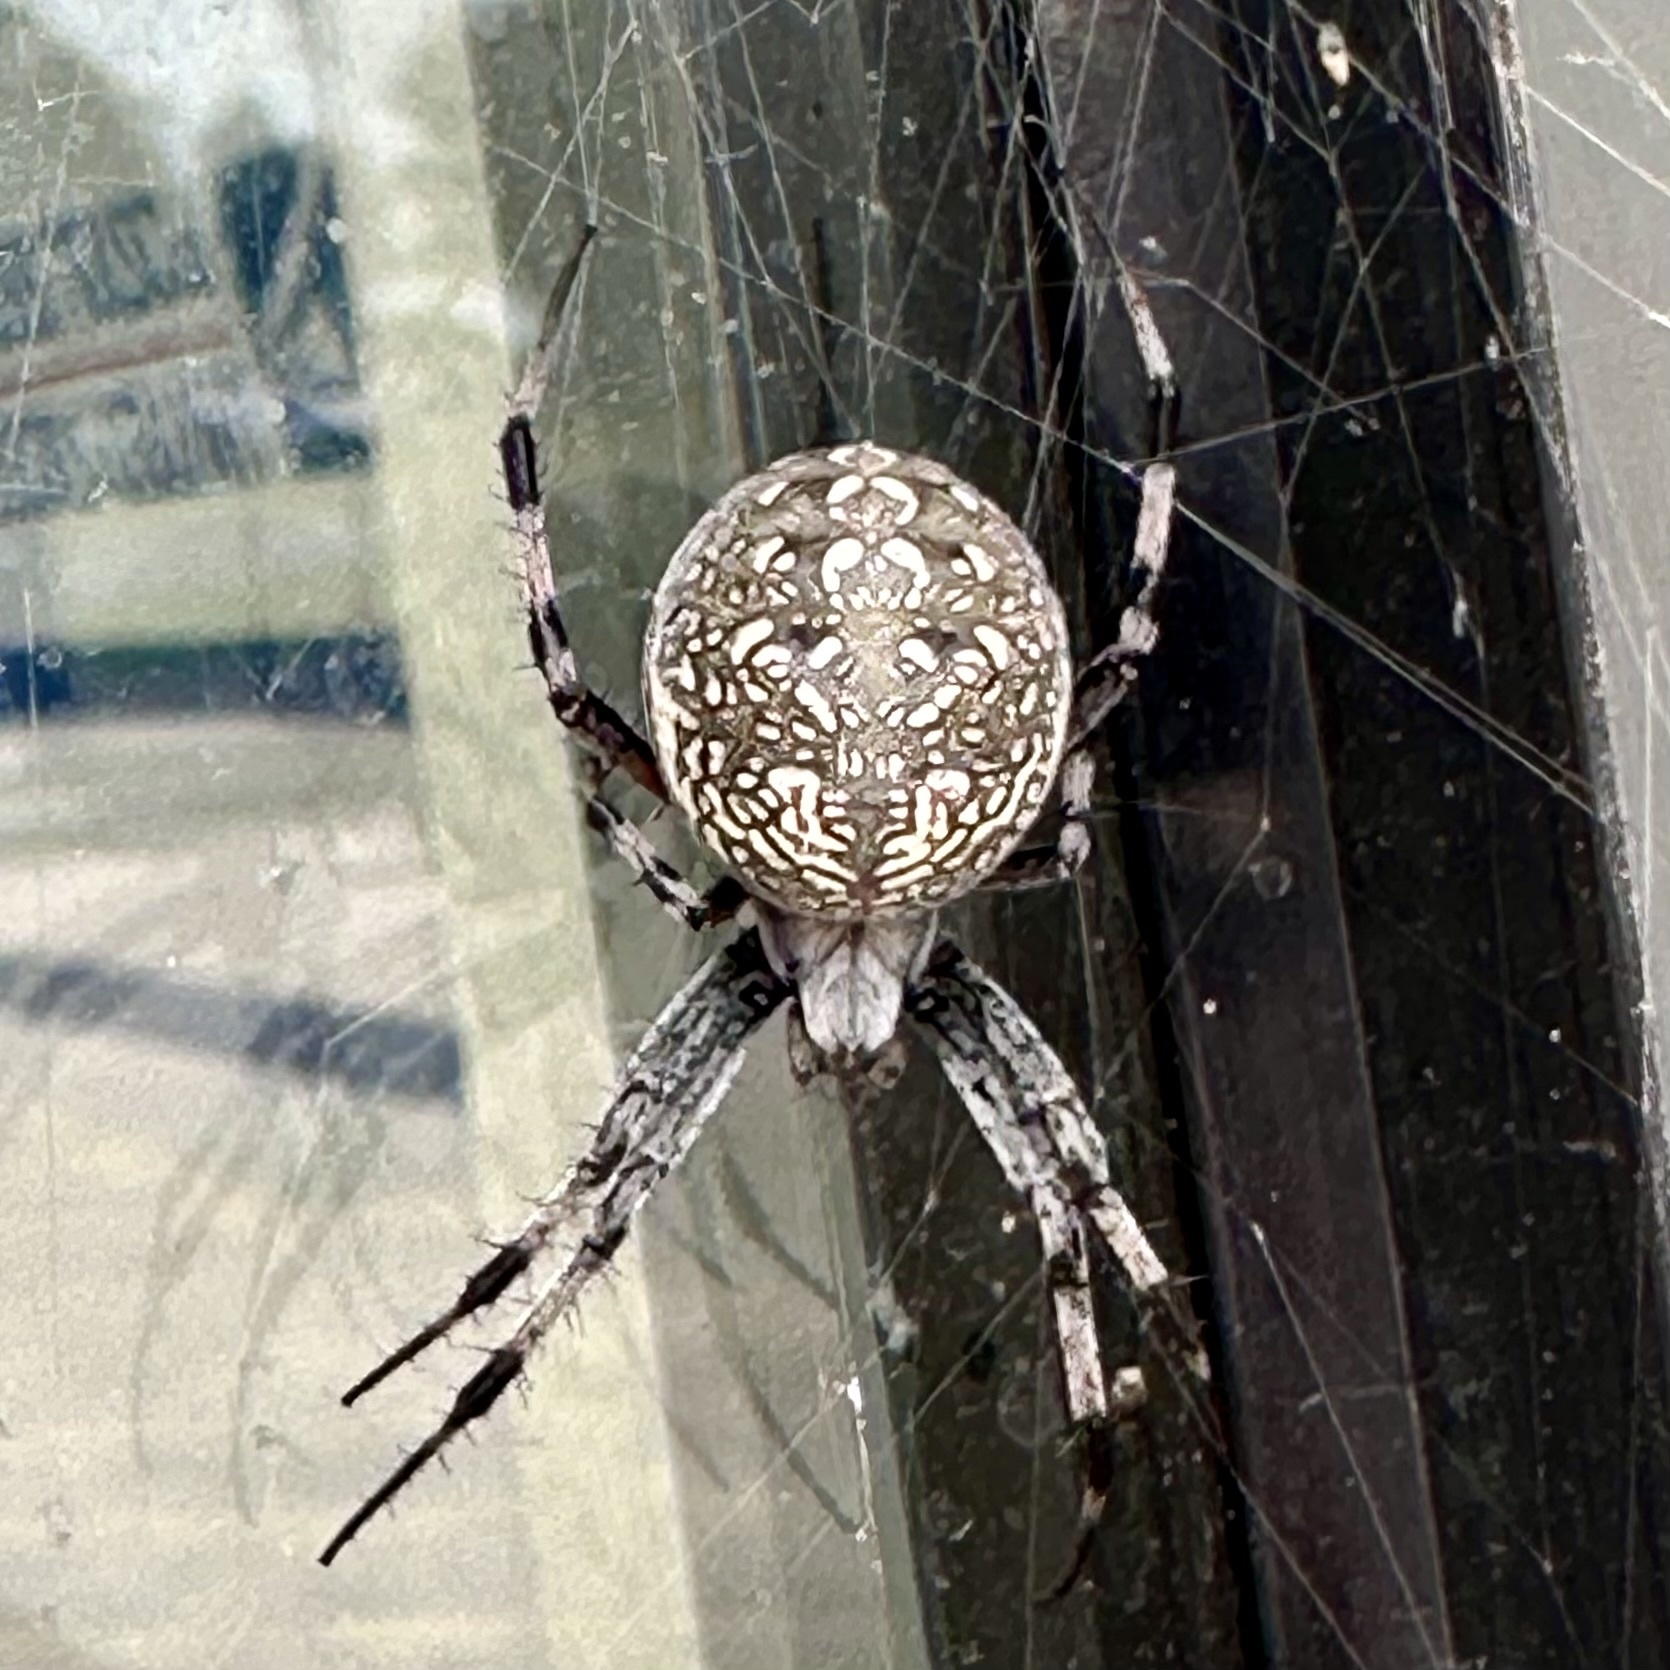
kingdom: Animalia
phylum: Arthropoda
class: Arachnida
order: Araneae
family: Araneidae
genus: Neoscona
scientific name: Neoscona oaxacensis
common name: Orb weavers
